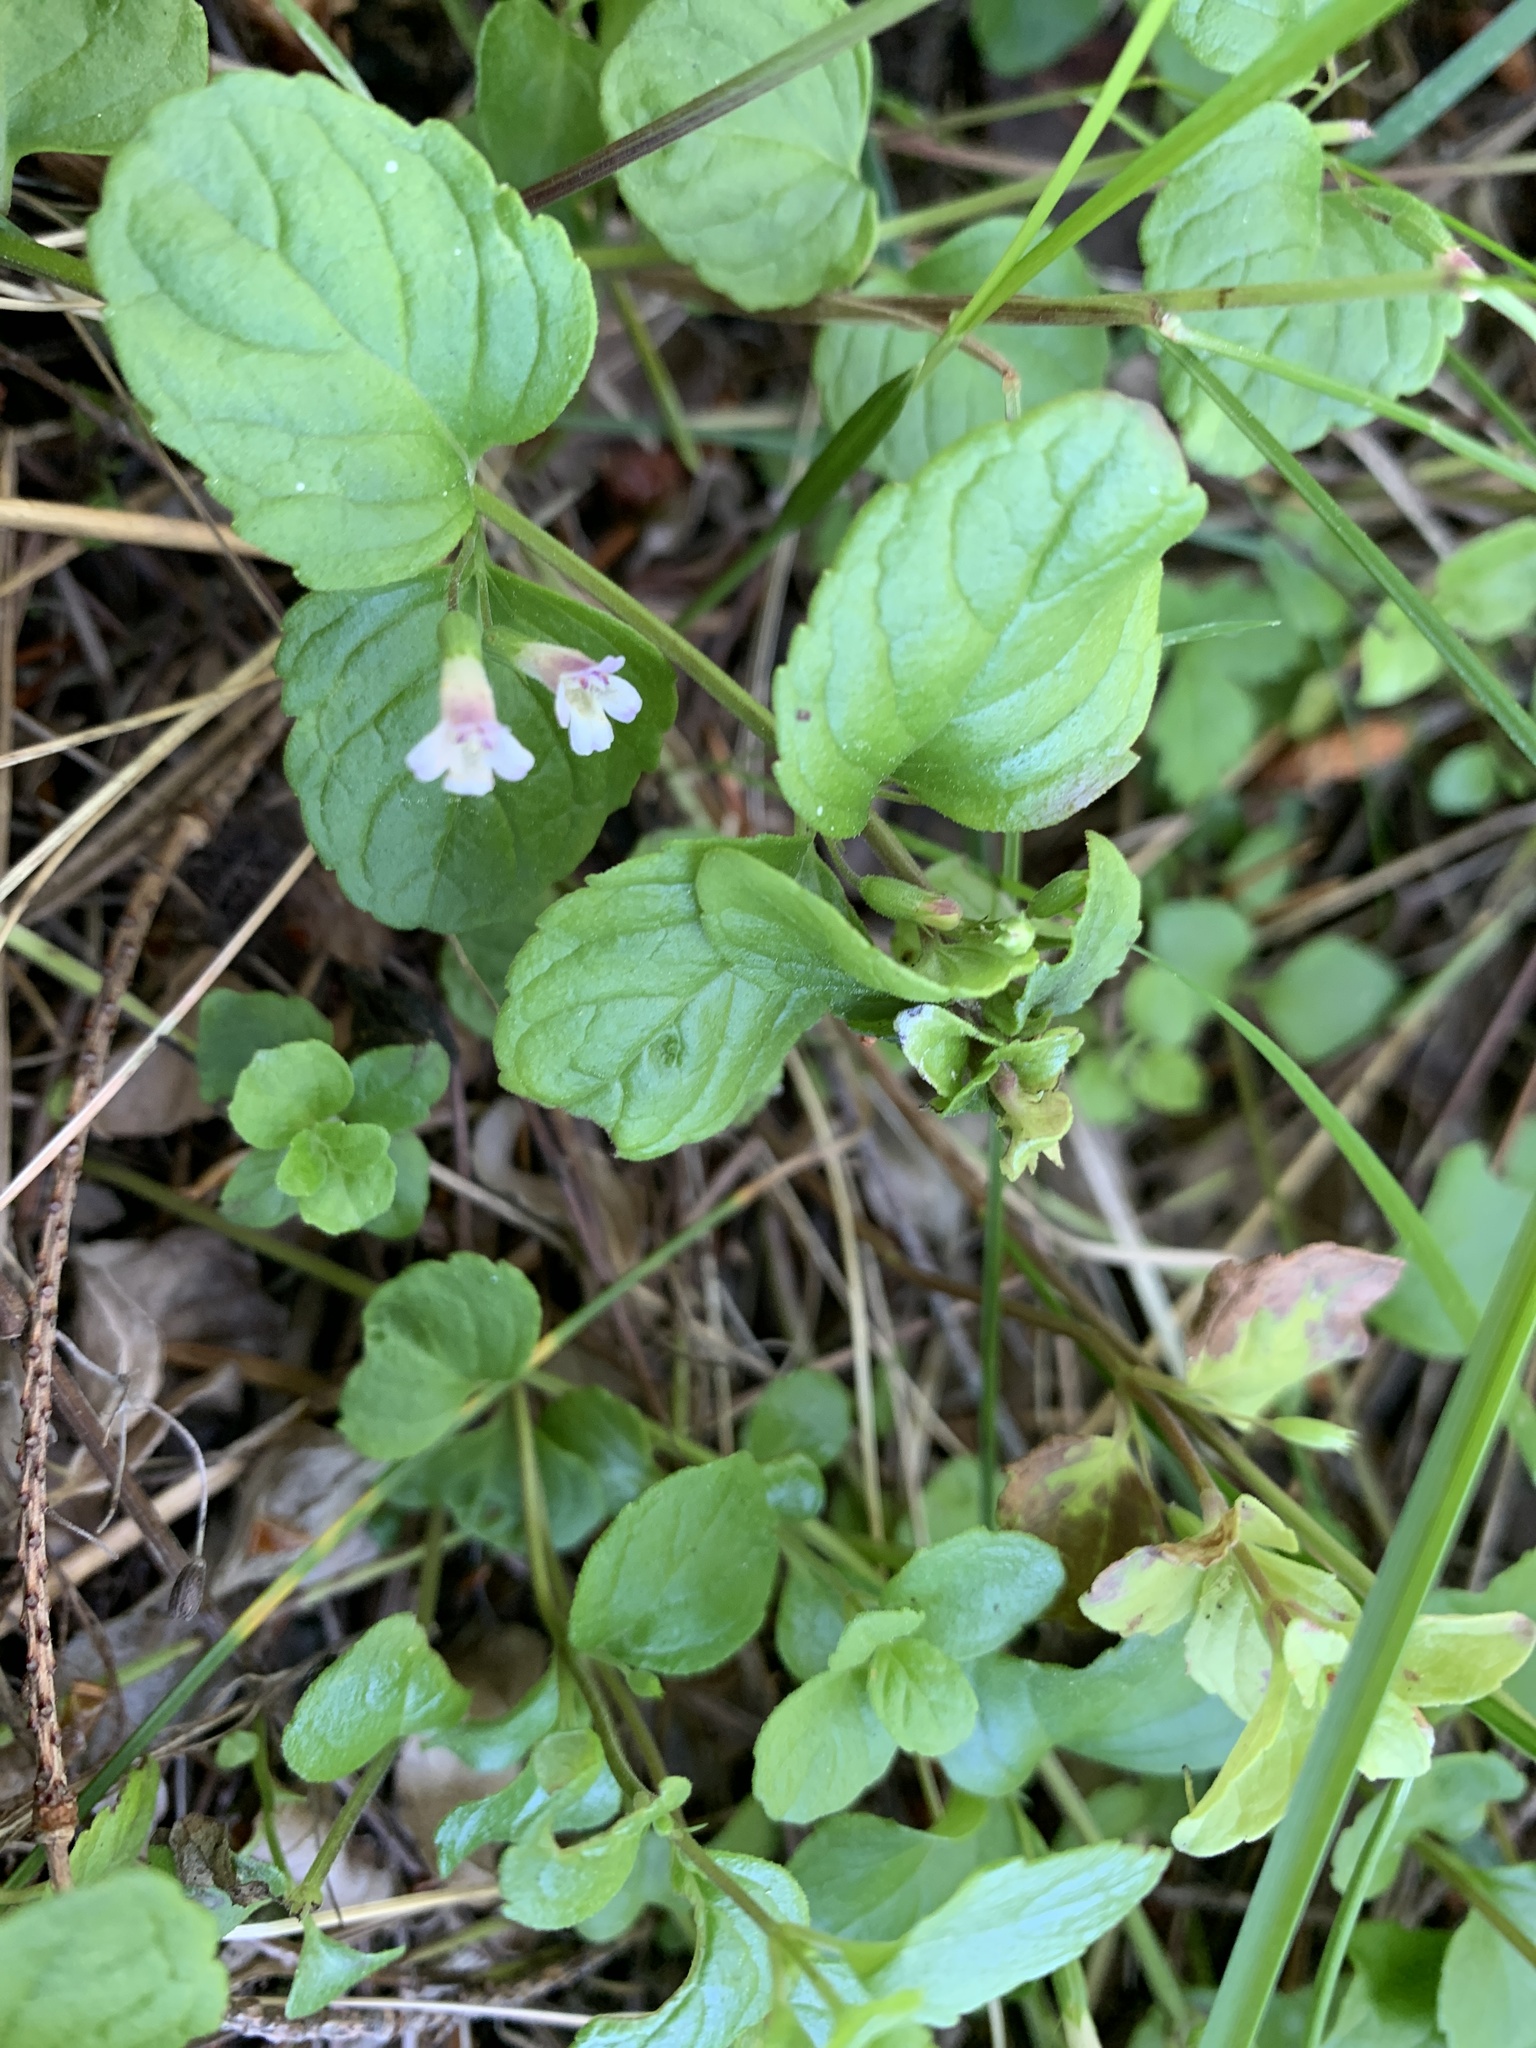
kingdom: Plantae
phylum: Tracheophyta
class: Magnoliopsida
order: Lamiales
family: Lamiaceae
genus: Micromeria
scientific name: Micromeria douglasii
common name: Yerba buena
